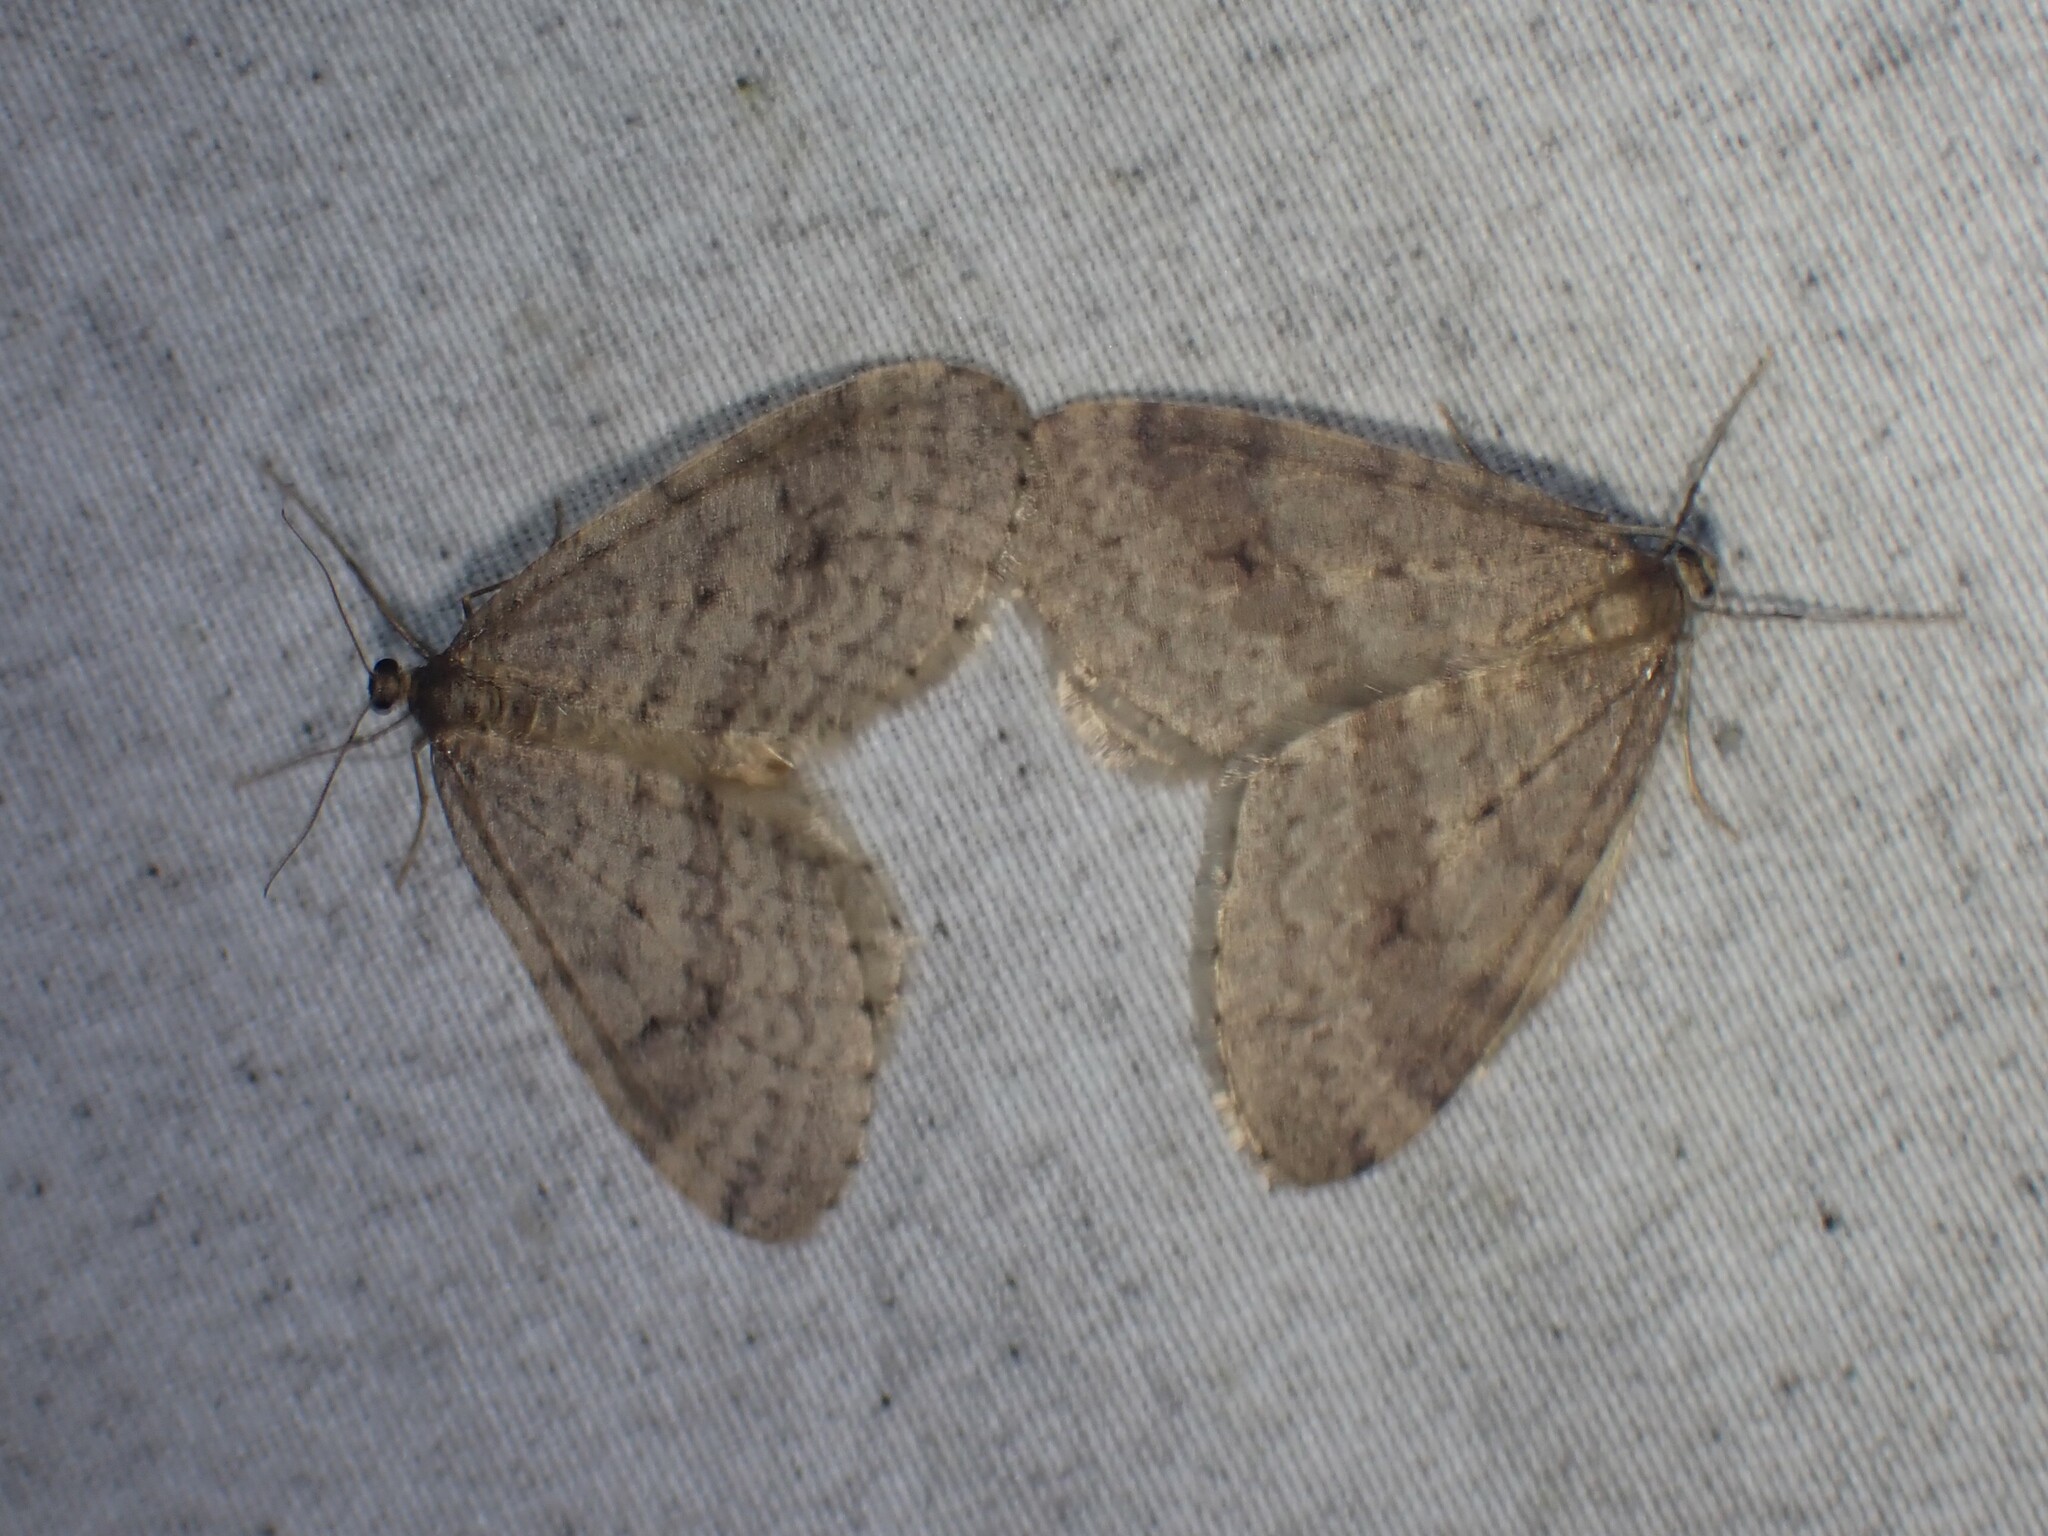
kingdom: Animalia
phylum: Arthropoda
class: Insecta
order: Lepidoptera
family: Geometridae
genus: Operophtera
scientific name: Operophtera bruceata
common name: Bruce spanworm
